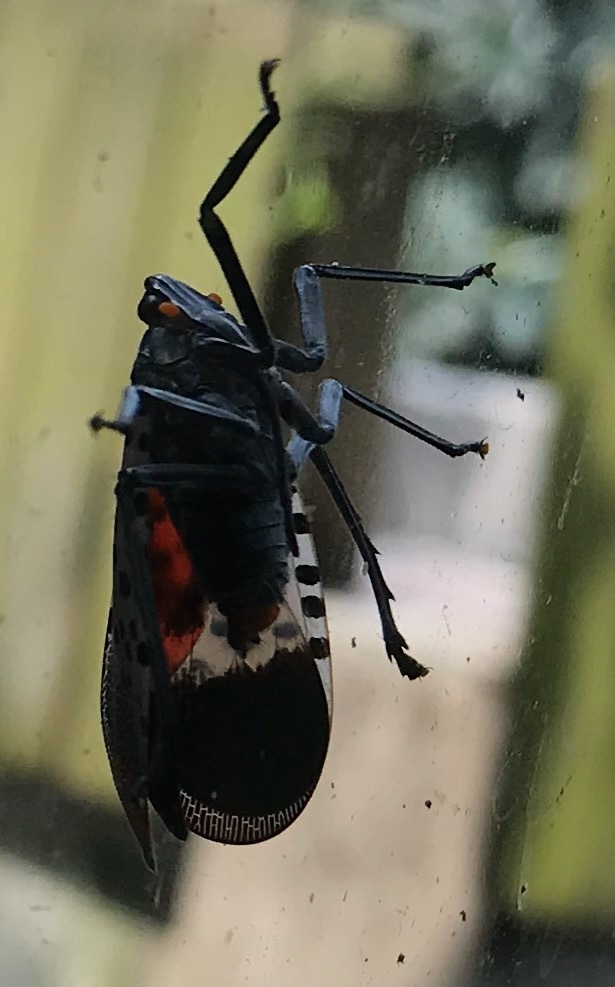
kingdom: Animalia
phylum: Arthropoda
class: Insecta
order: Hemiptera
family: Fulgoridae
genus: Lycorma
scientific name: Lycorma delicatula
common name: Spotted lanternfly
